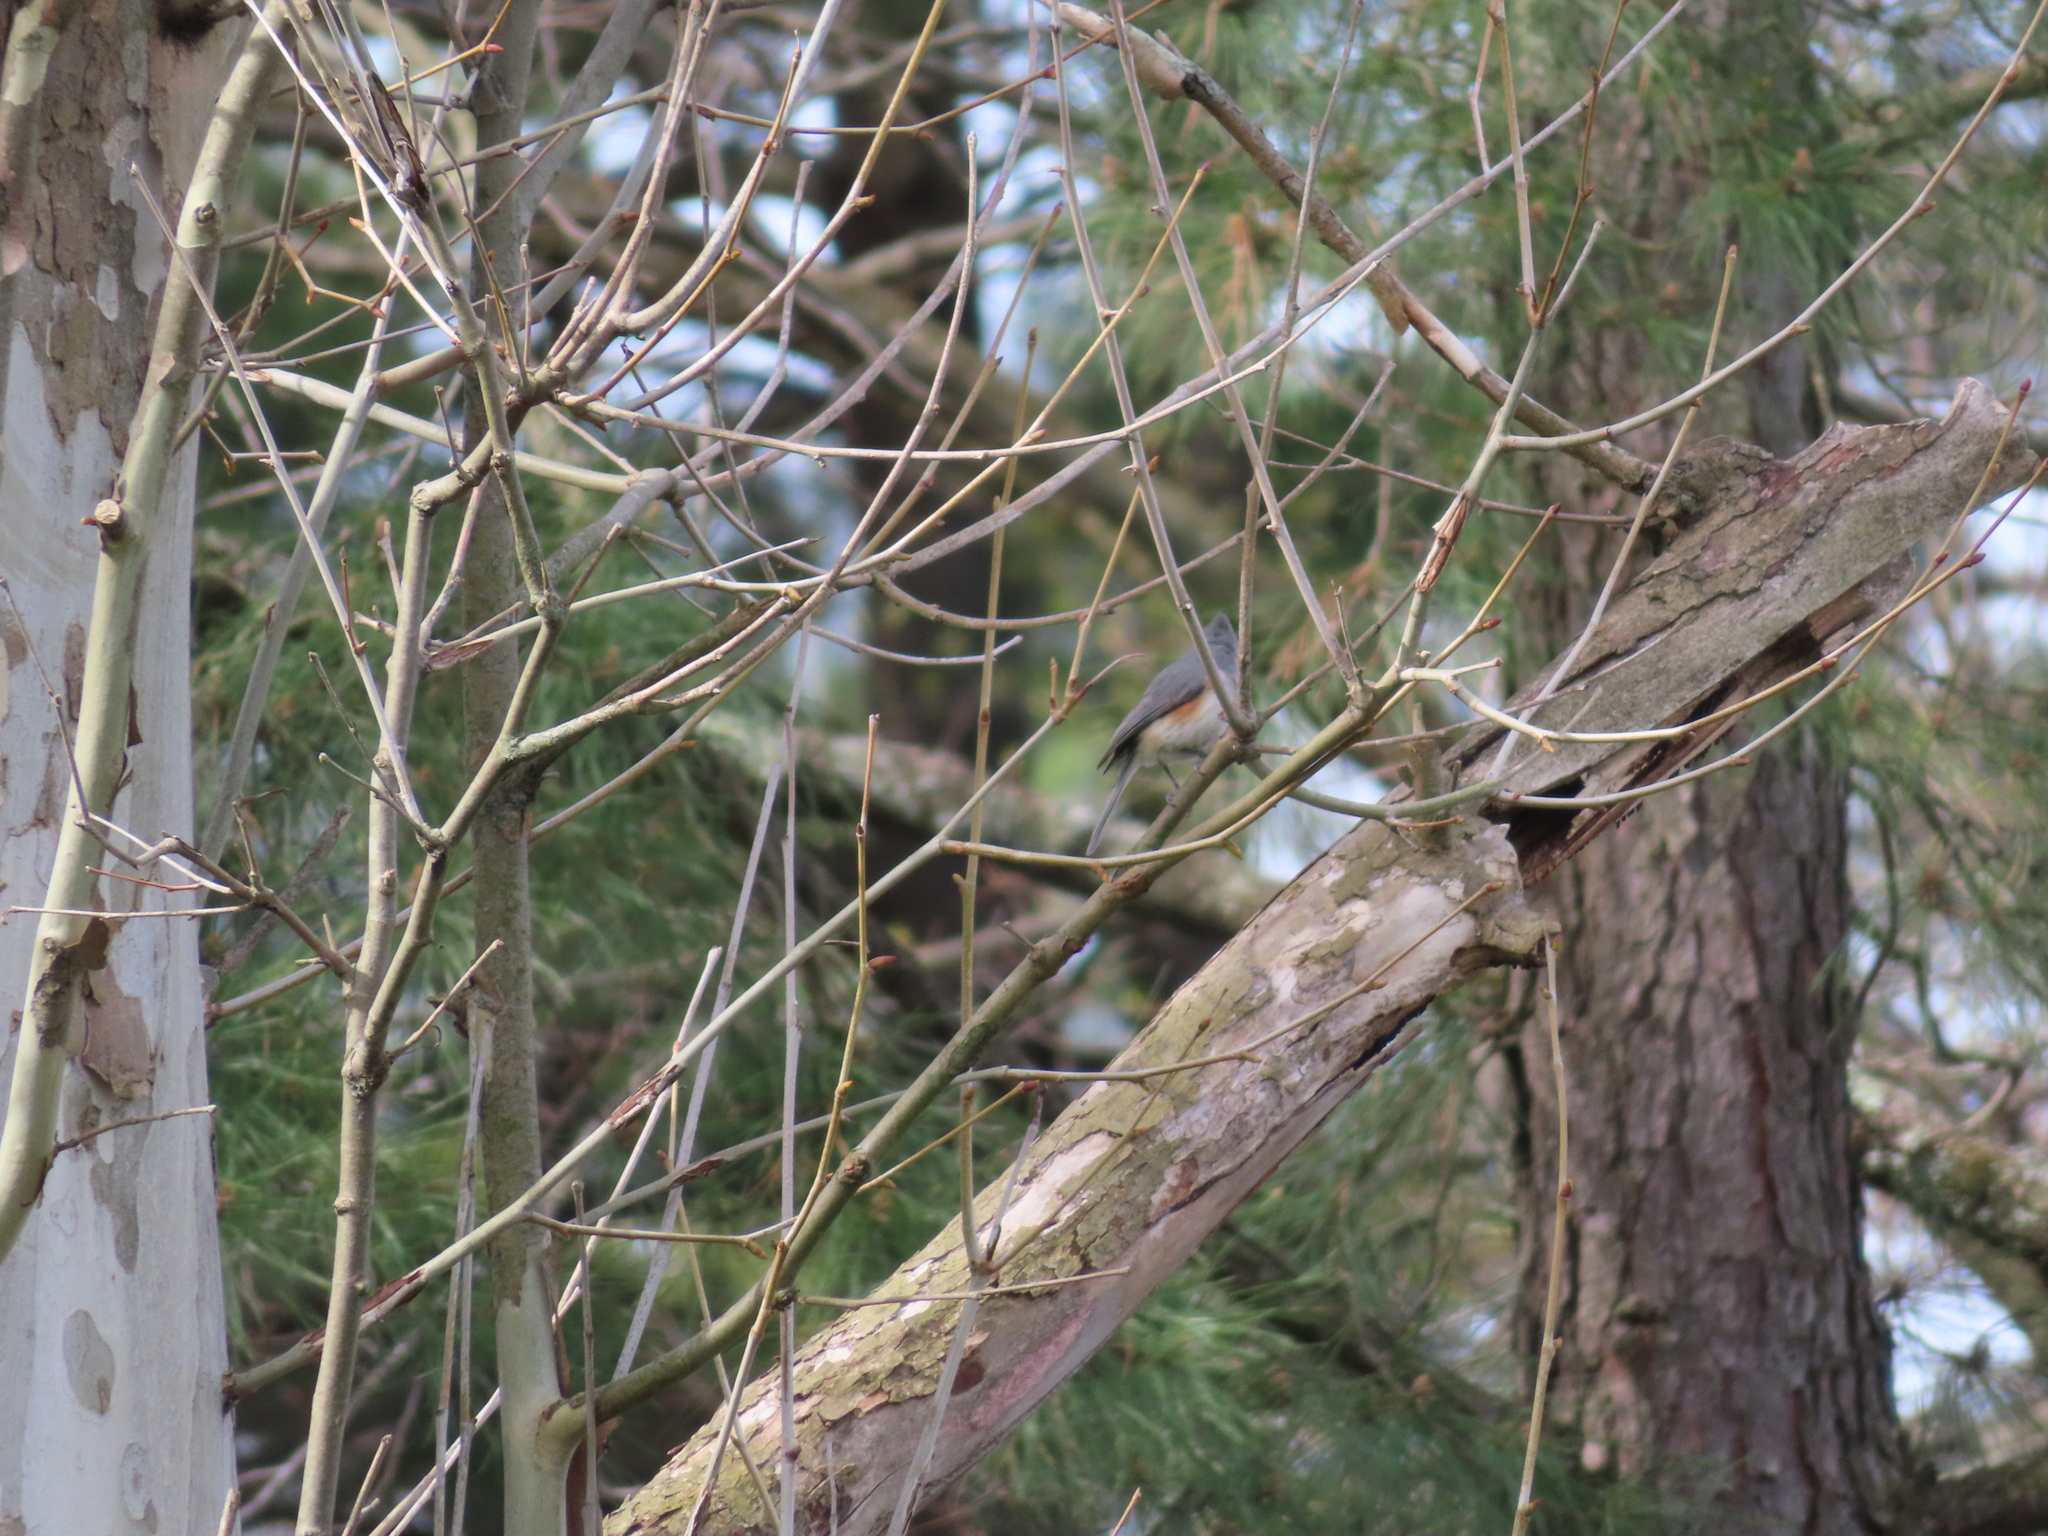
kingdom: Animalia
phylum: Chordata
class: Aves
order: Passeriformes
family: Paridae
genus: Baeolophus
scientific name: Baeolophus bicolor
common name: Tufted titmouse
